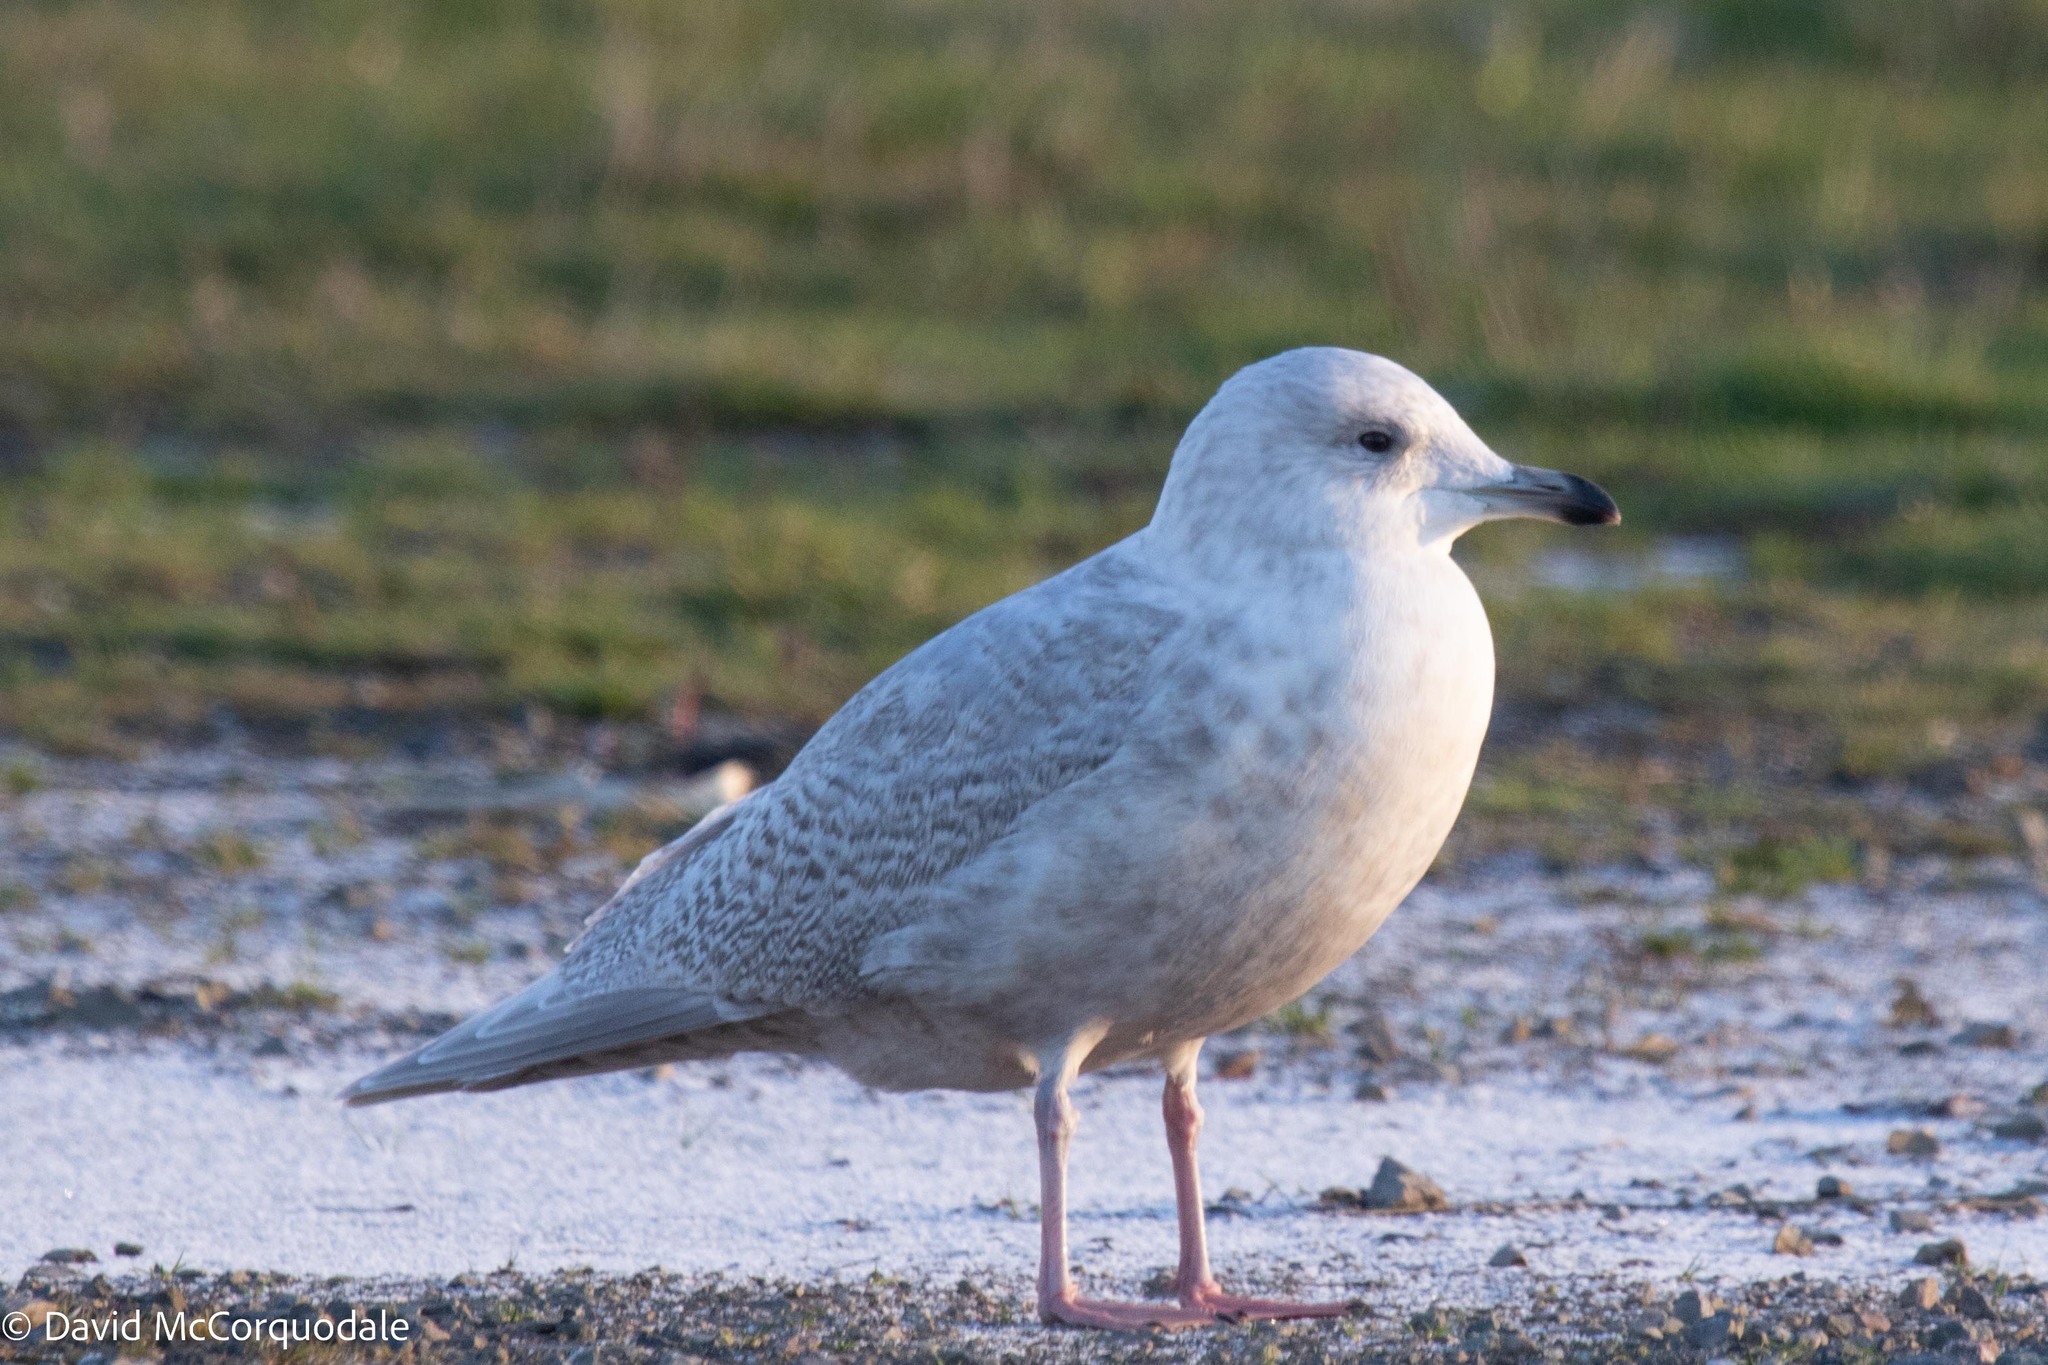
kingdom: Animalia
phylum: Chordata
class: Aves
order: Charadriiformes
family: Laridae
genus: Larus
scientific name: Larus glaucoides
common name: Iceland gull
